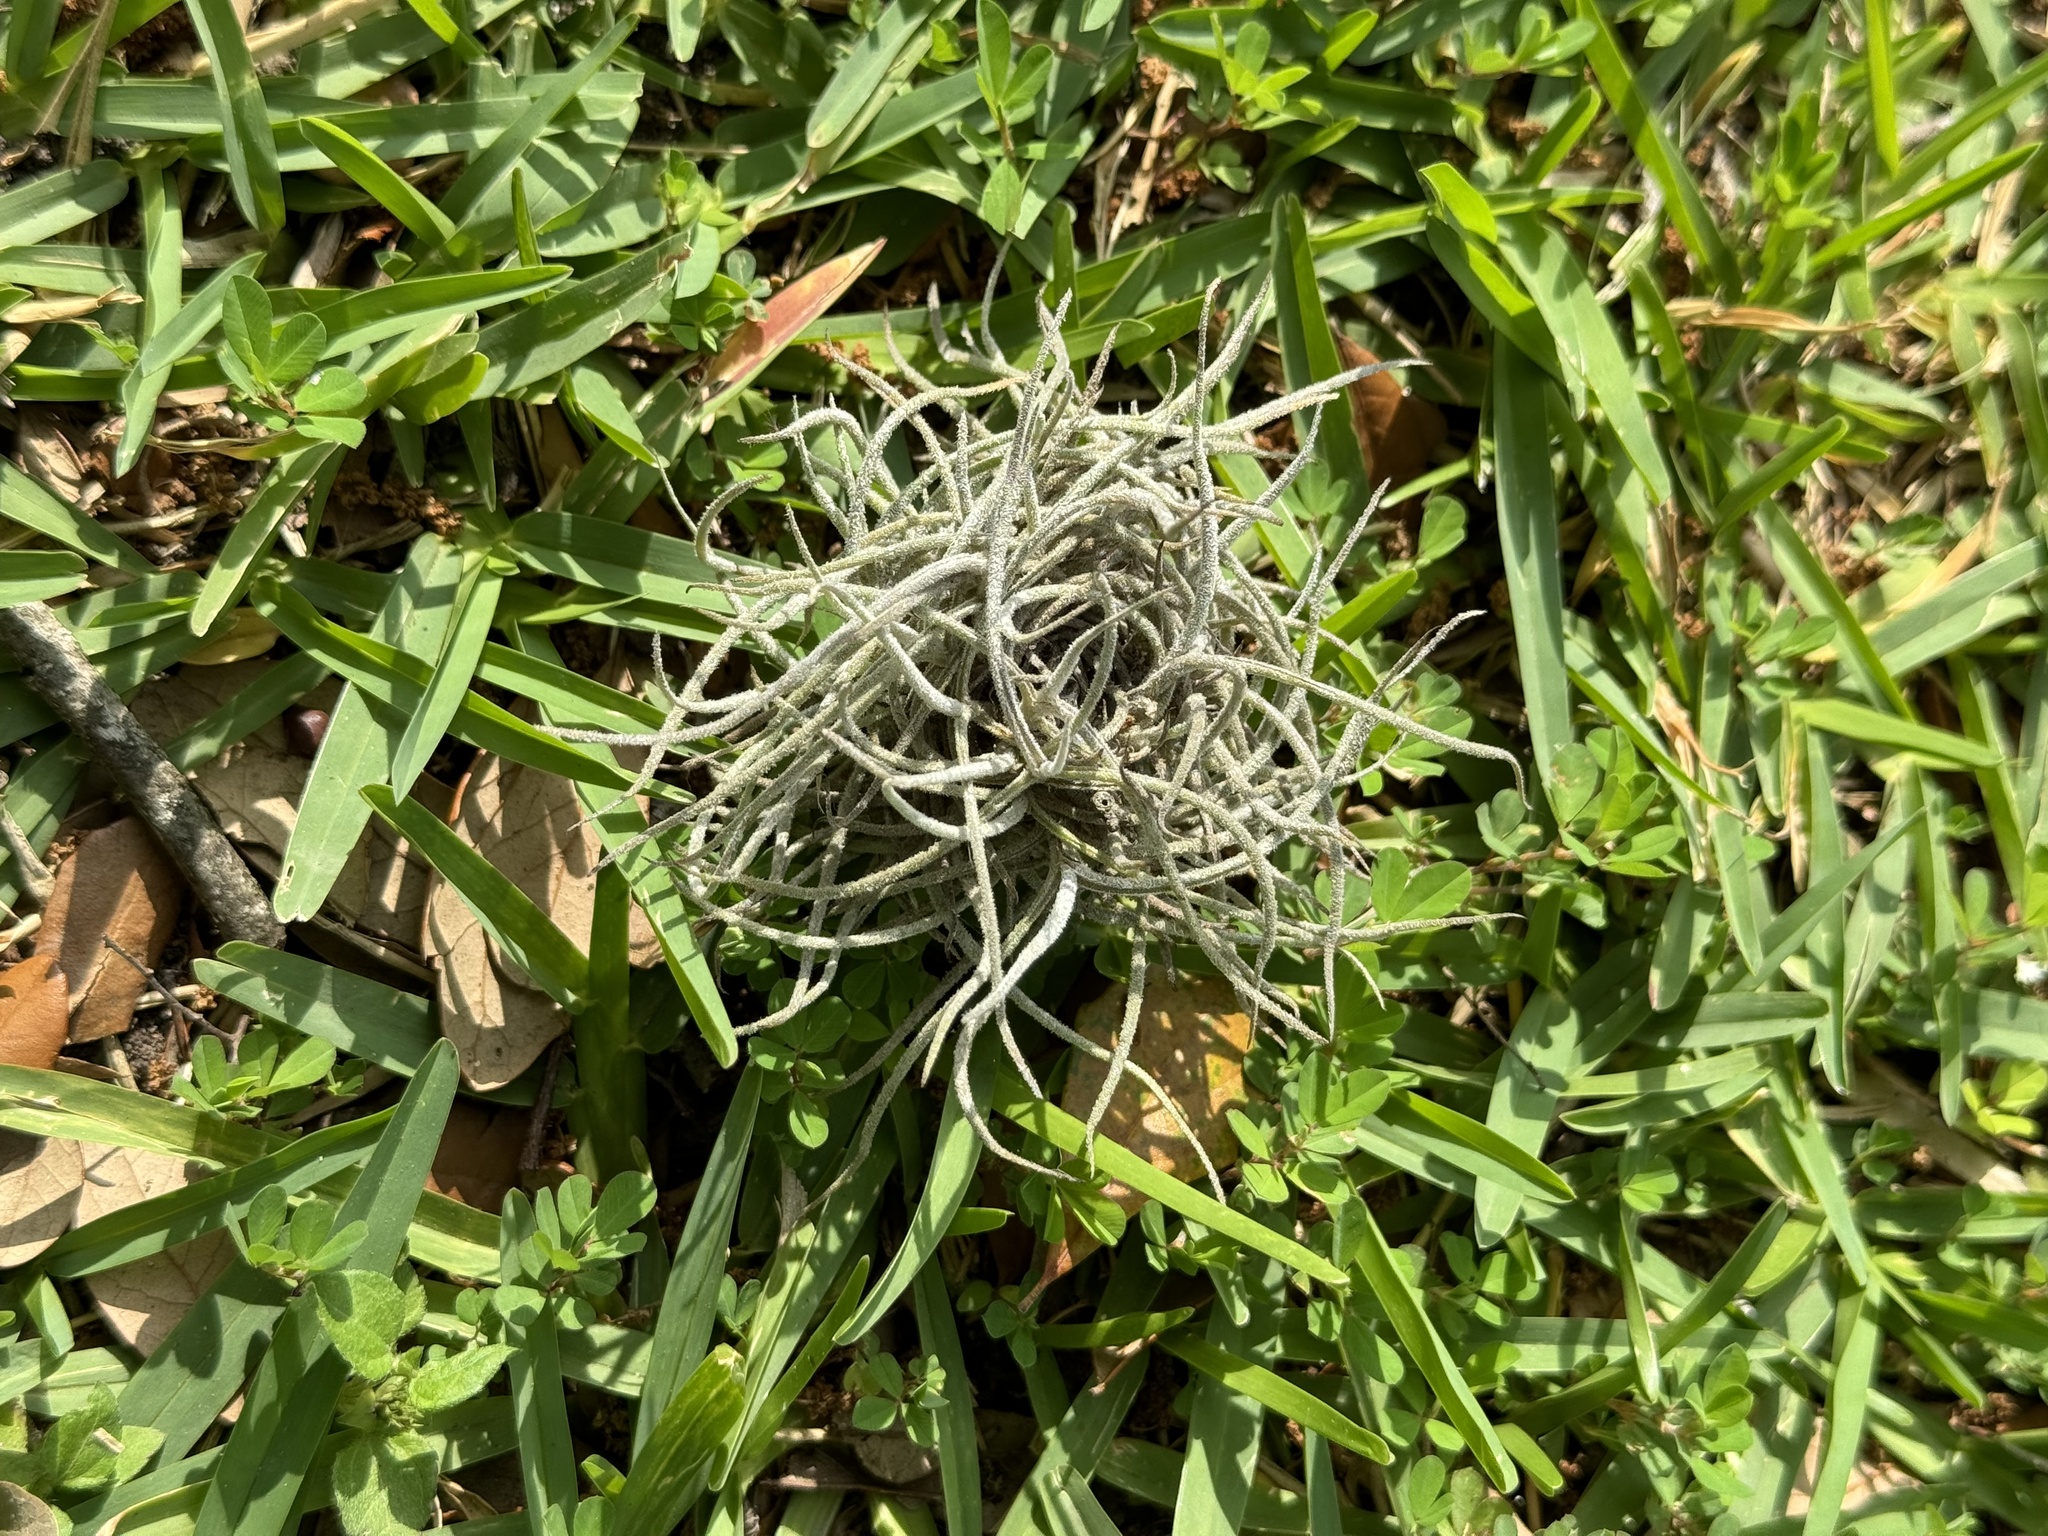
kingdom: Plantae
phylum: Tracheophyta
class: Liliopsida
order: Poales
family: Bromeliaceae
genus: Tillandsia
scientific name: Tillandsia recurvata
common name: Small ballmoss
